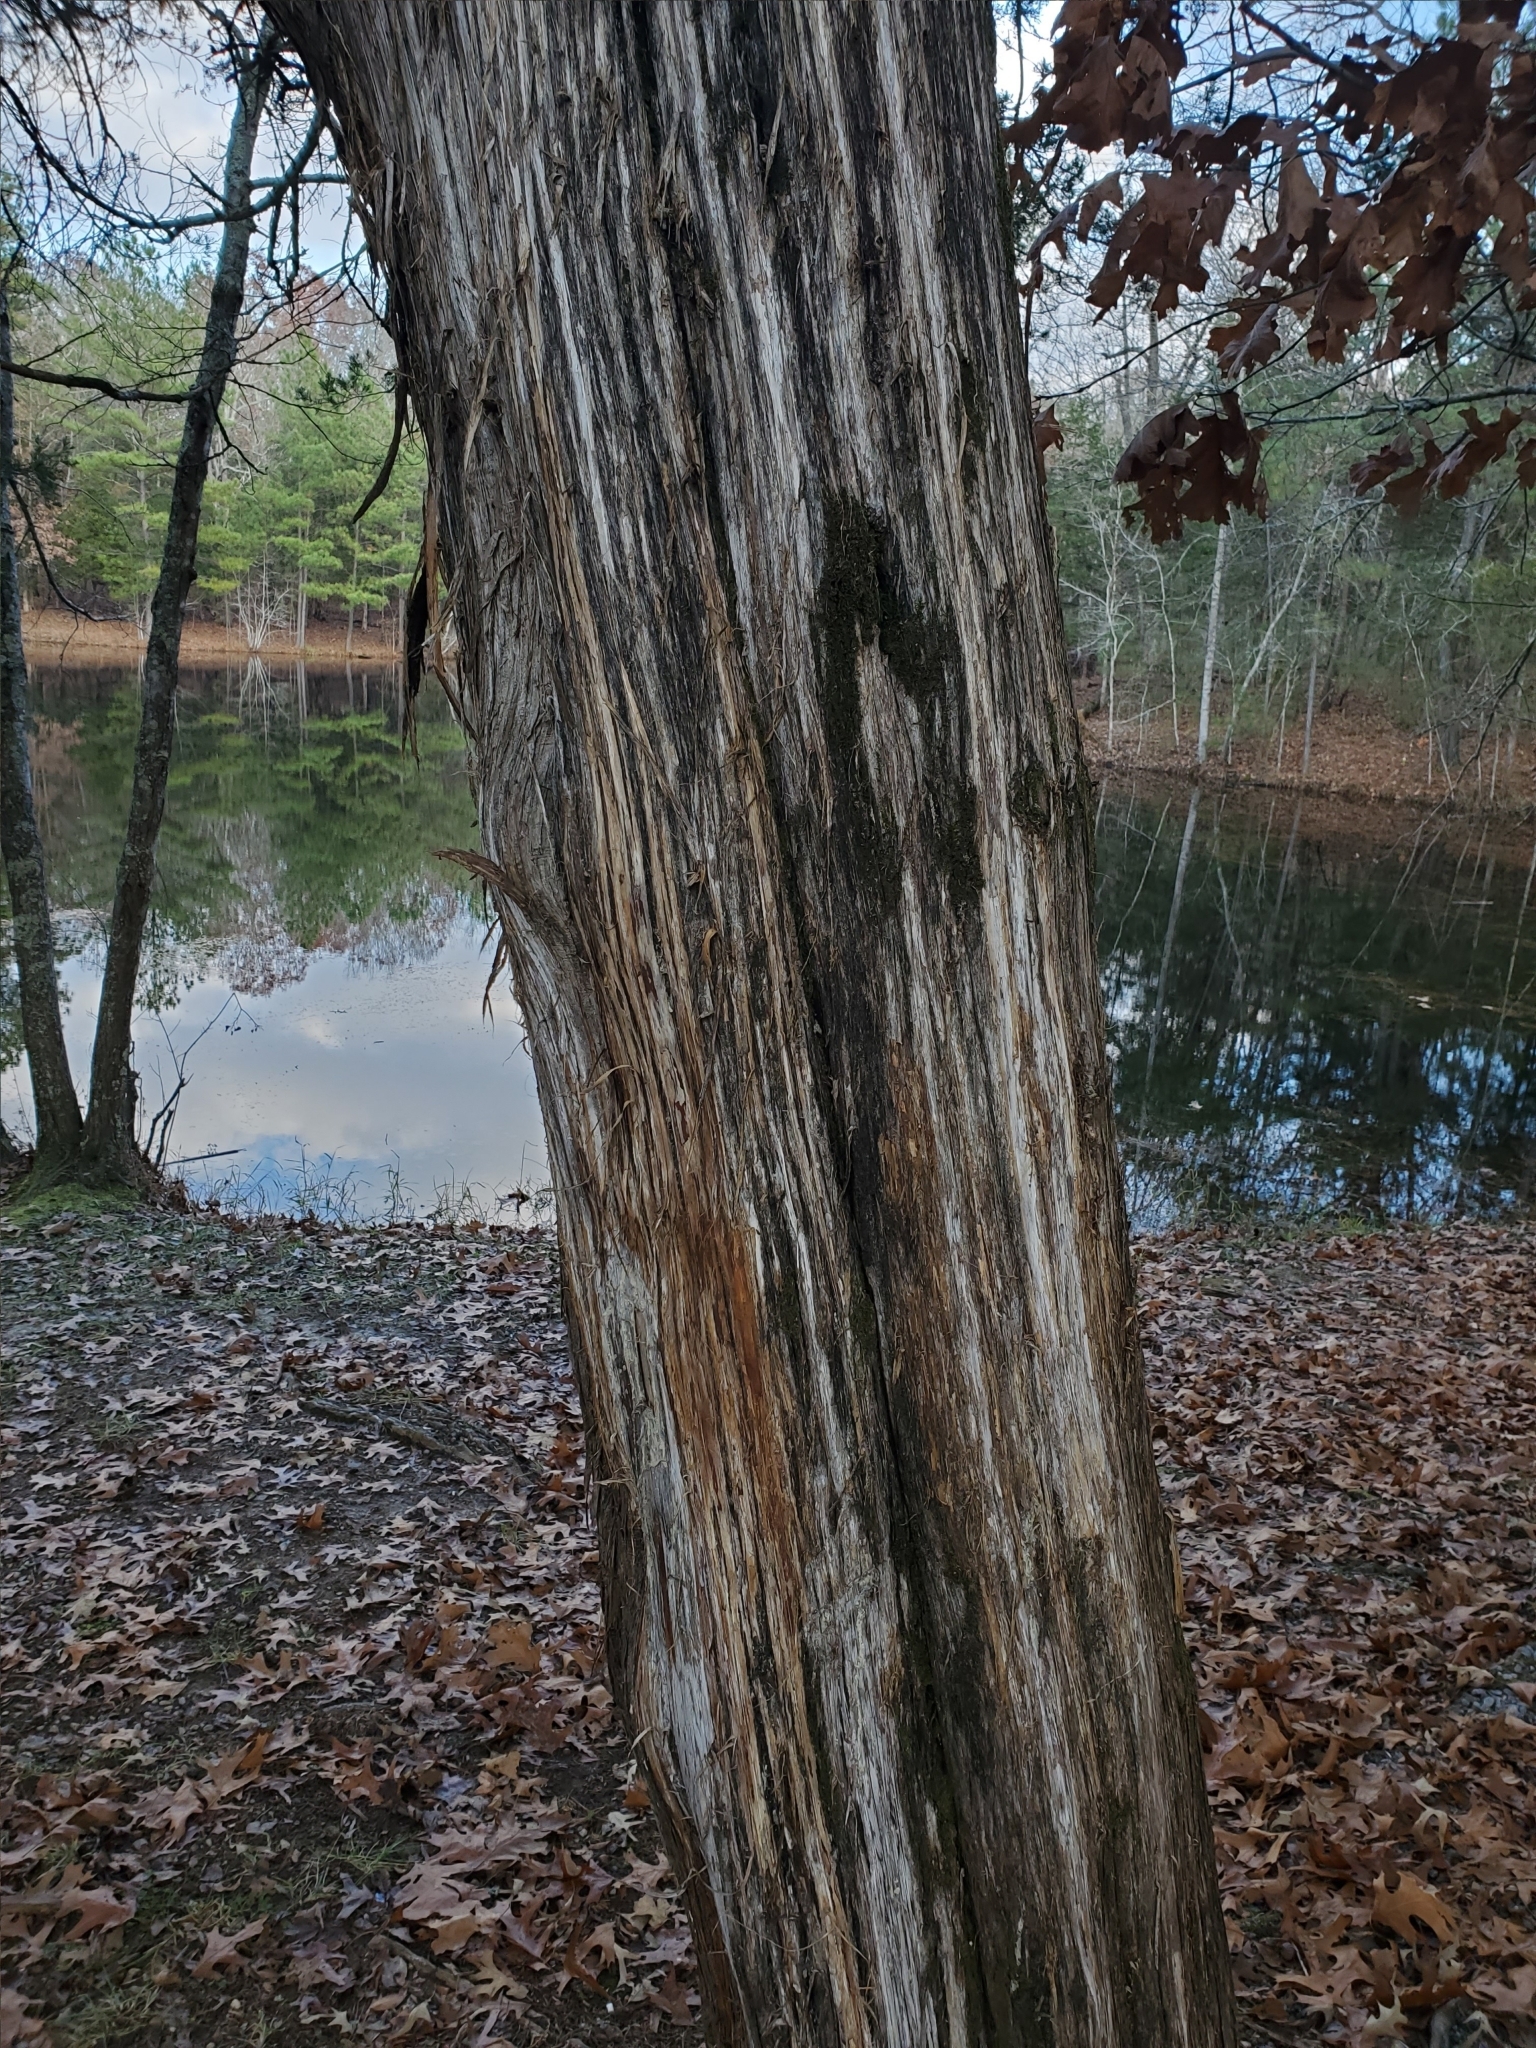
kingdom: Plantae
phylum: Tracheophyta
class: Pinopsida
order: Pinales
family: Cupressaceae
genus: Juniperus
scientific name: Juniperus virginiana
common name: Red juniper
